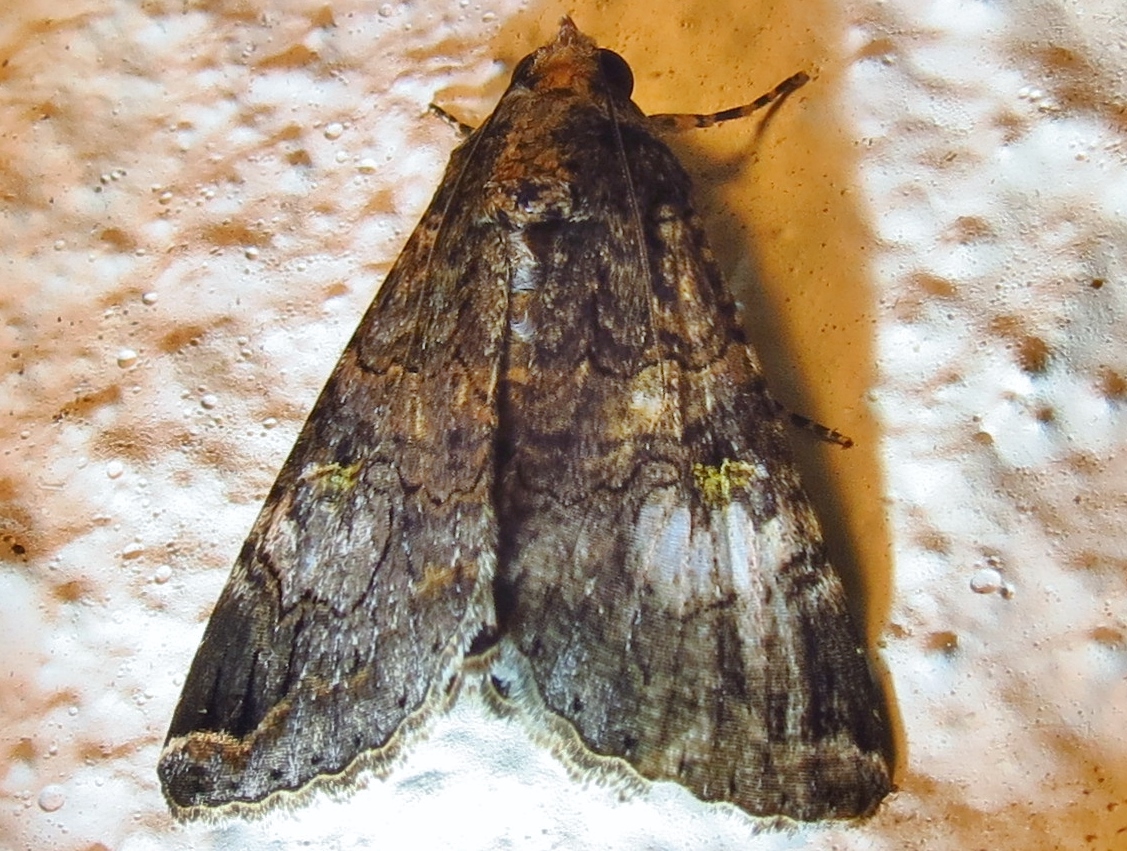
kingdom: Animalia
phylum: Arthropoda
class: Insecta
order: Lepidoptera
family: Erebidae
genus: Melipotis
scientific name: Melipotis famelica
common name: Famelica melipotis moth
